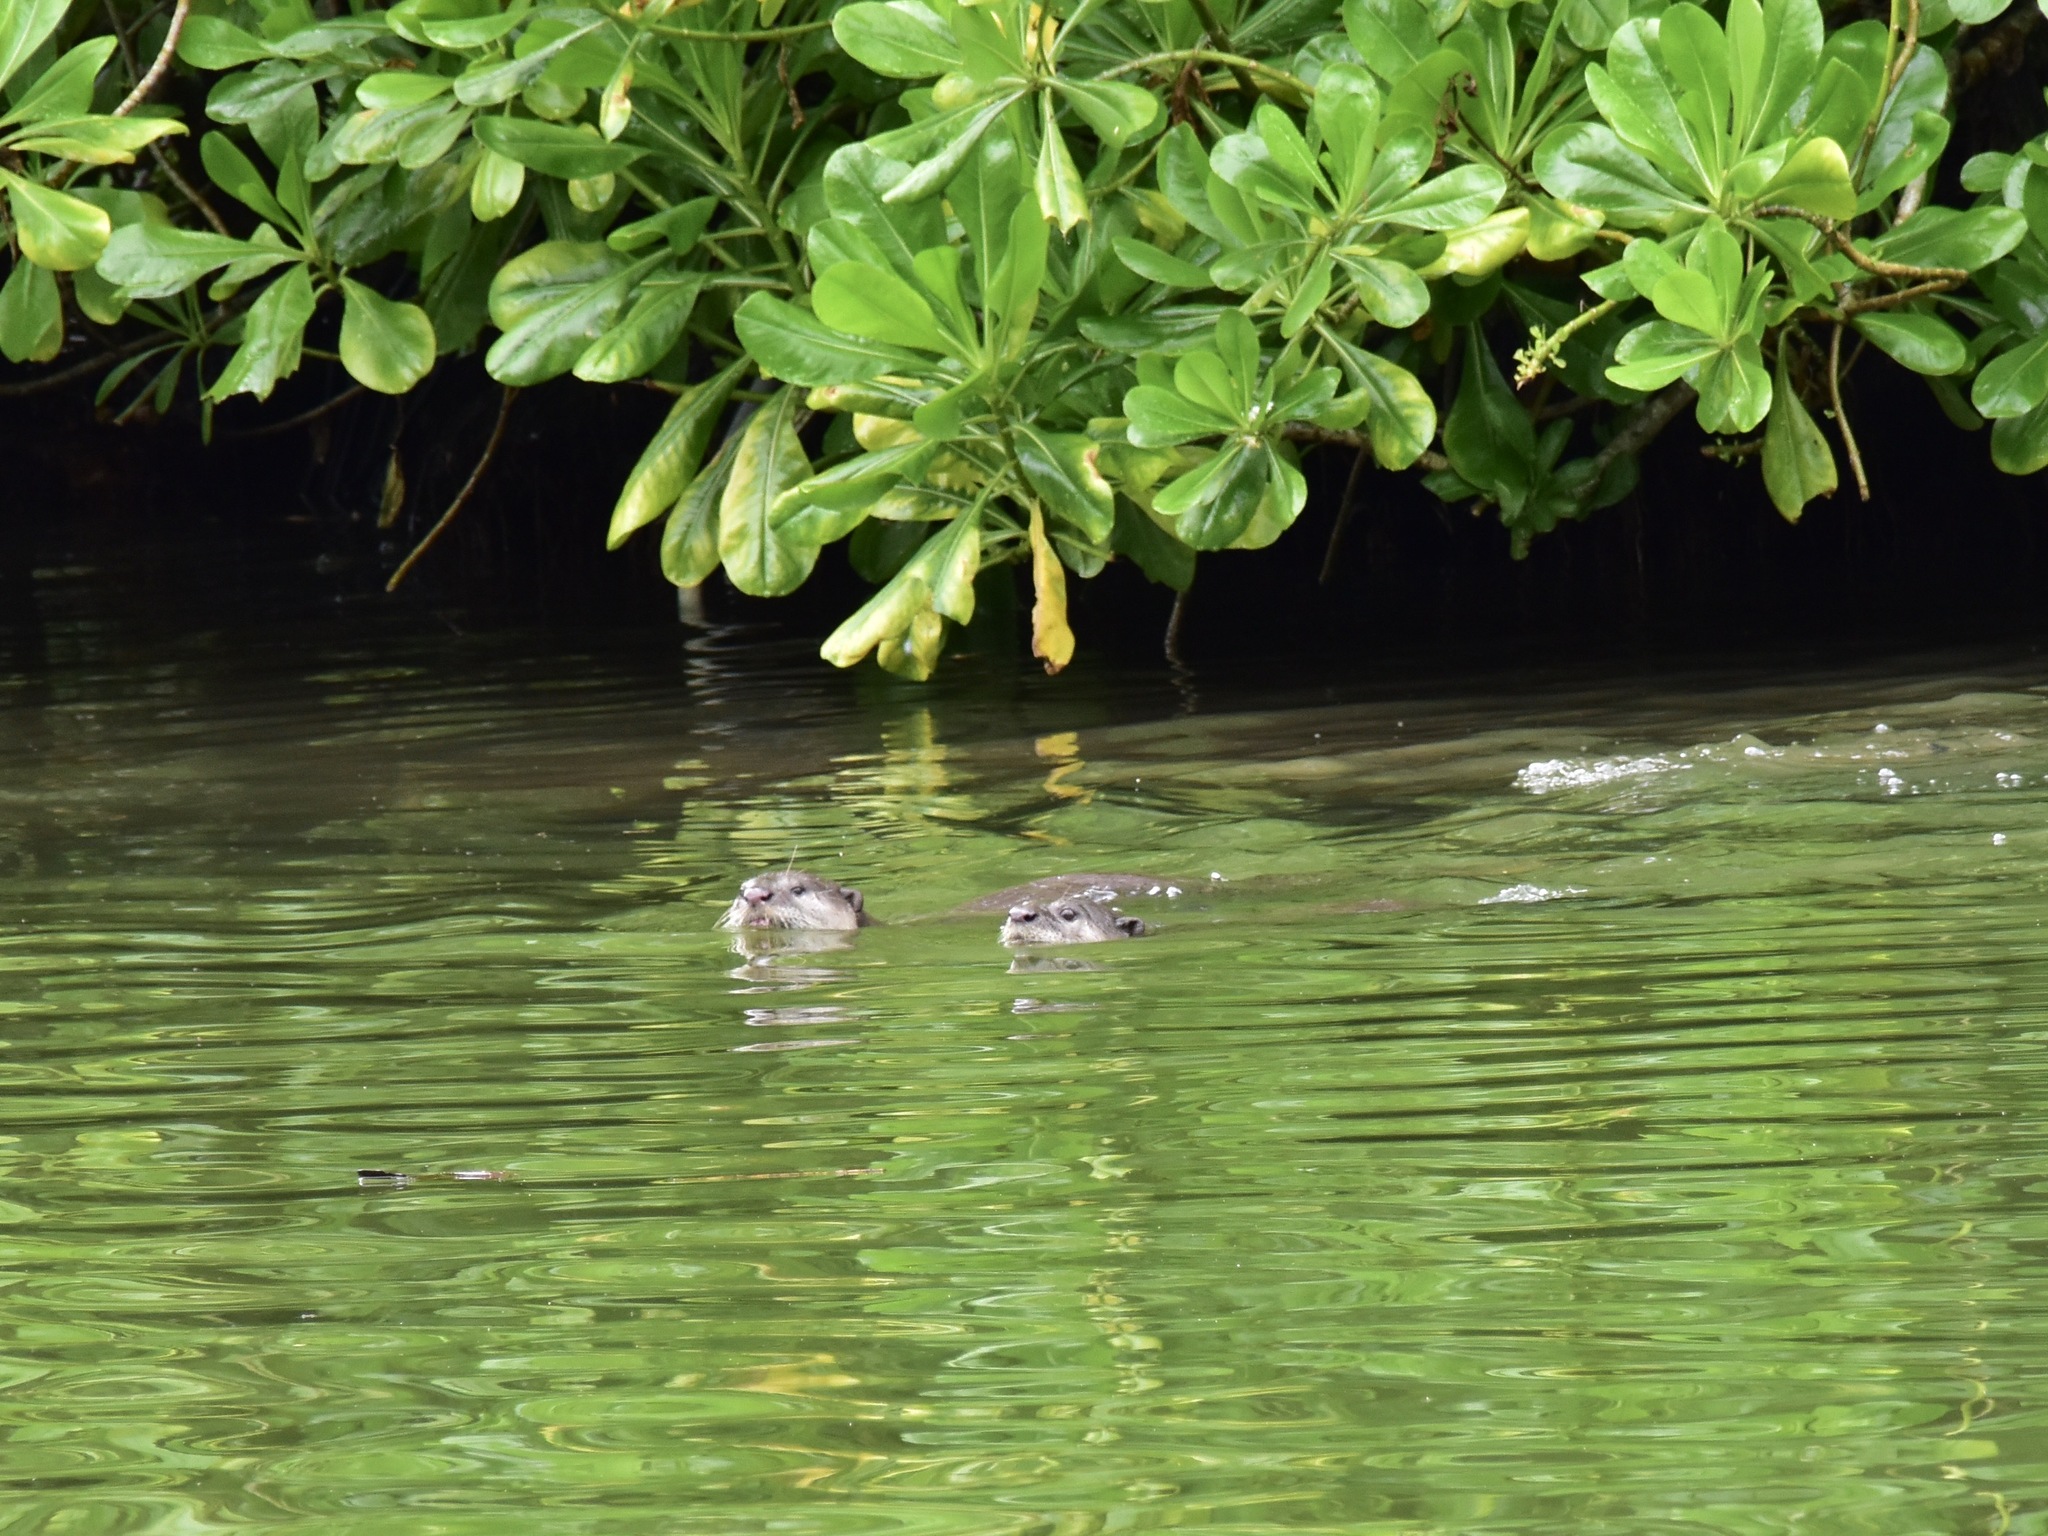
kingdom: Animalia
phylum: Chordata
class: Mammalia
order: Carnivora
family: Mustelidae
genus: Lutrogale
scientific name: Lutrogale perspicillata
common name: Smooth-coated otter
